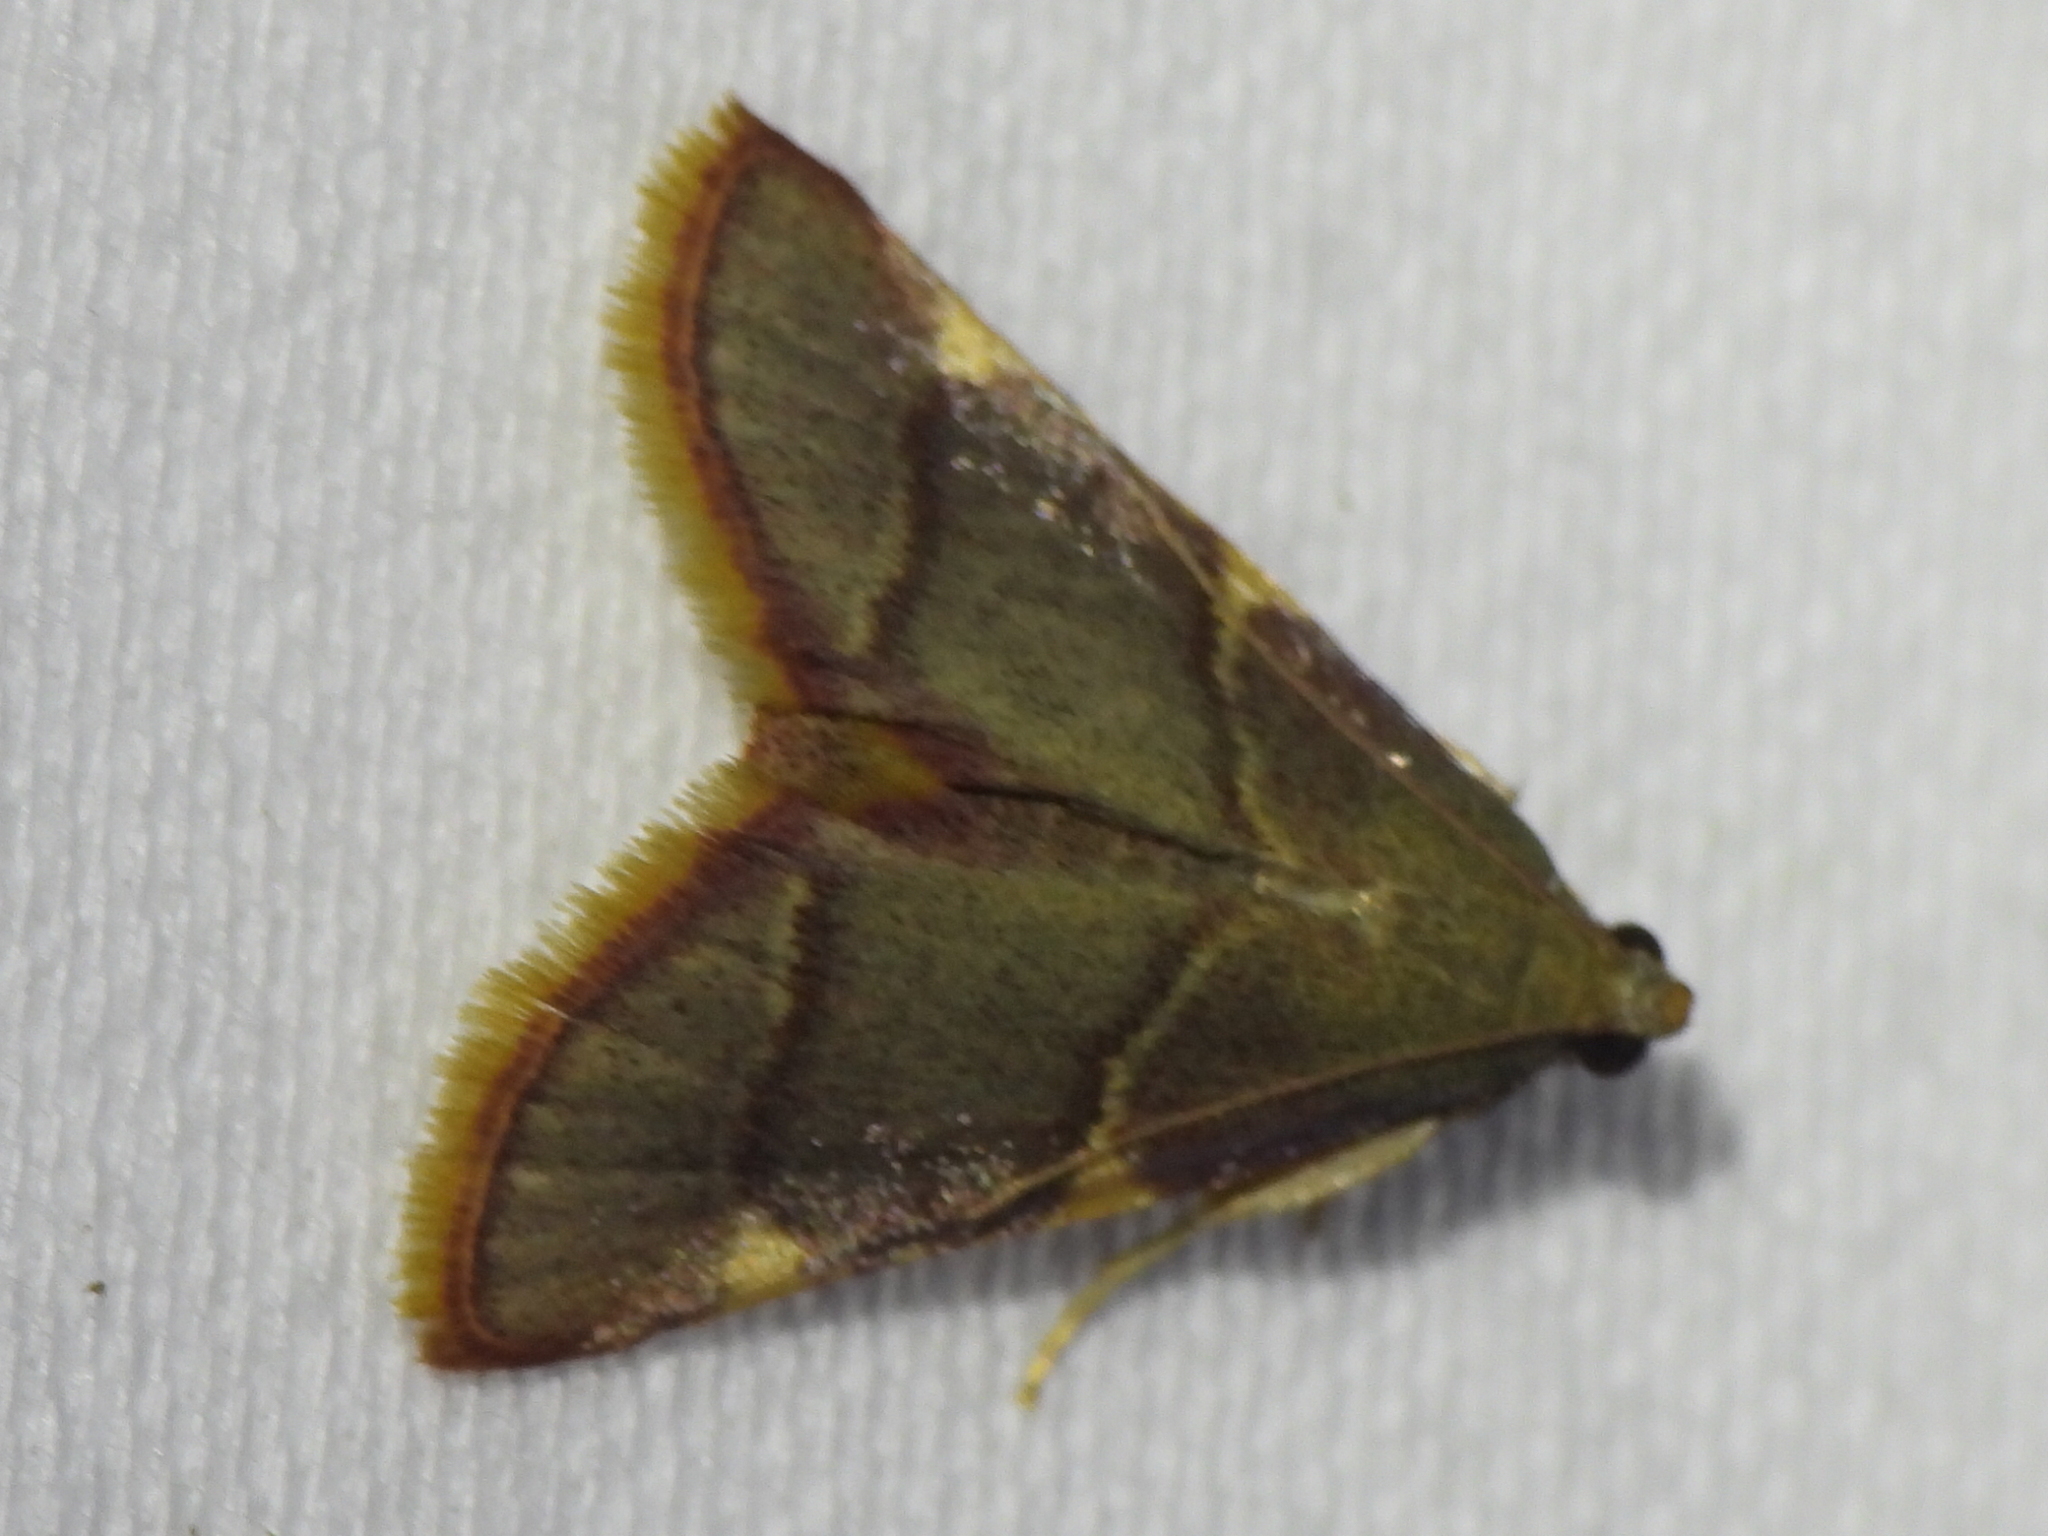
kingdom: Animalia
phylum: Arthropoda
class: Insecta
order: Lepidoptera
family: Pyralidae
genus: Hypsopygia
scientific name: Hypsopygia olinalis
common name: Yellow-fringed dolichomia moth
